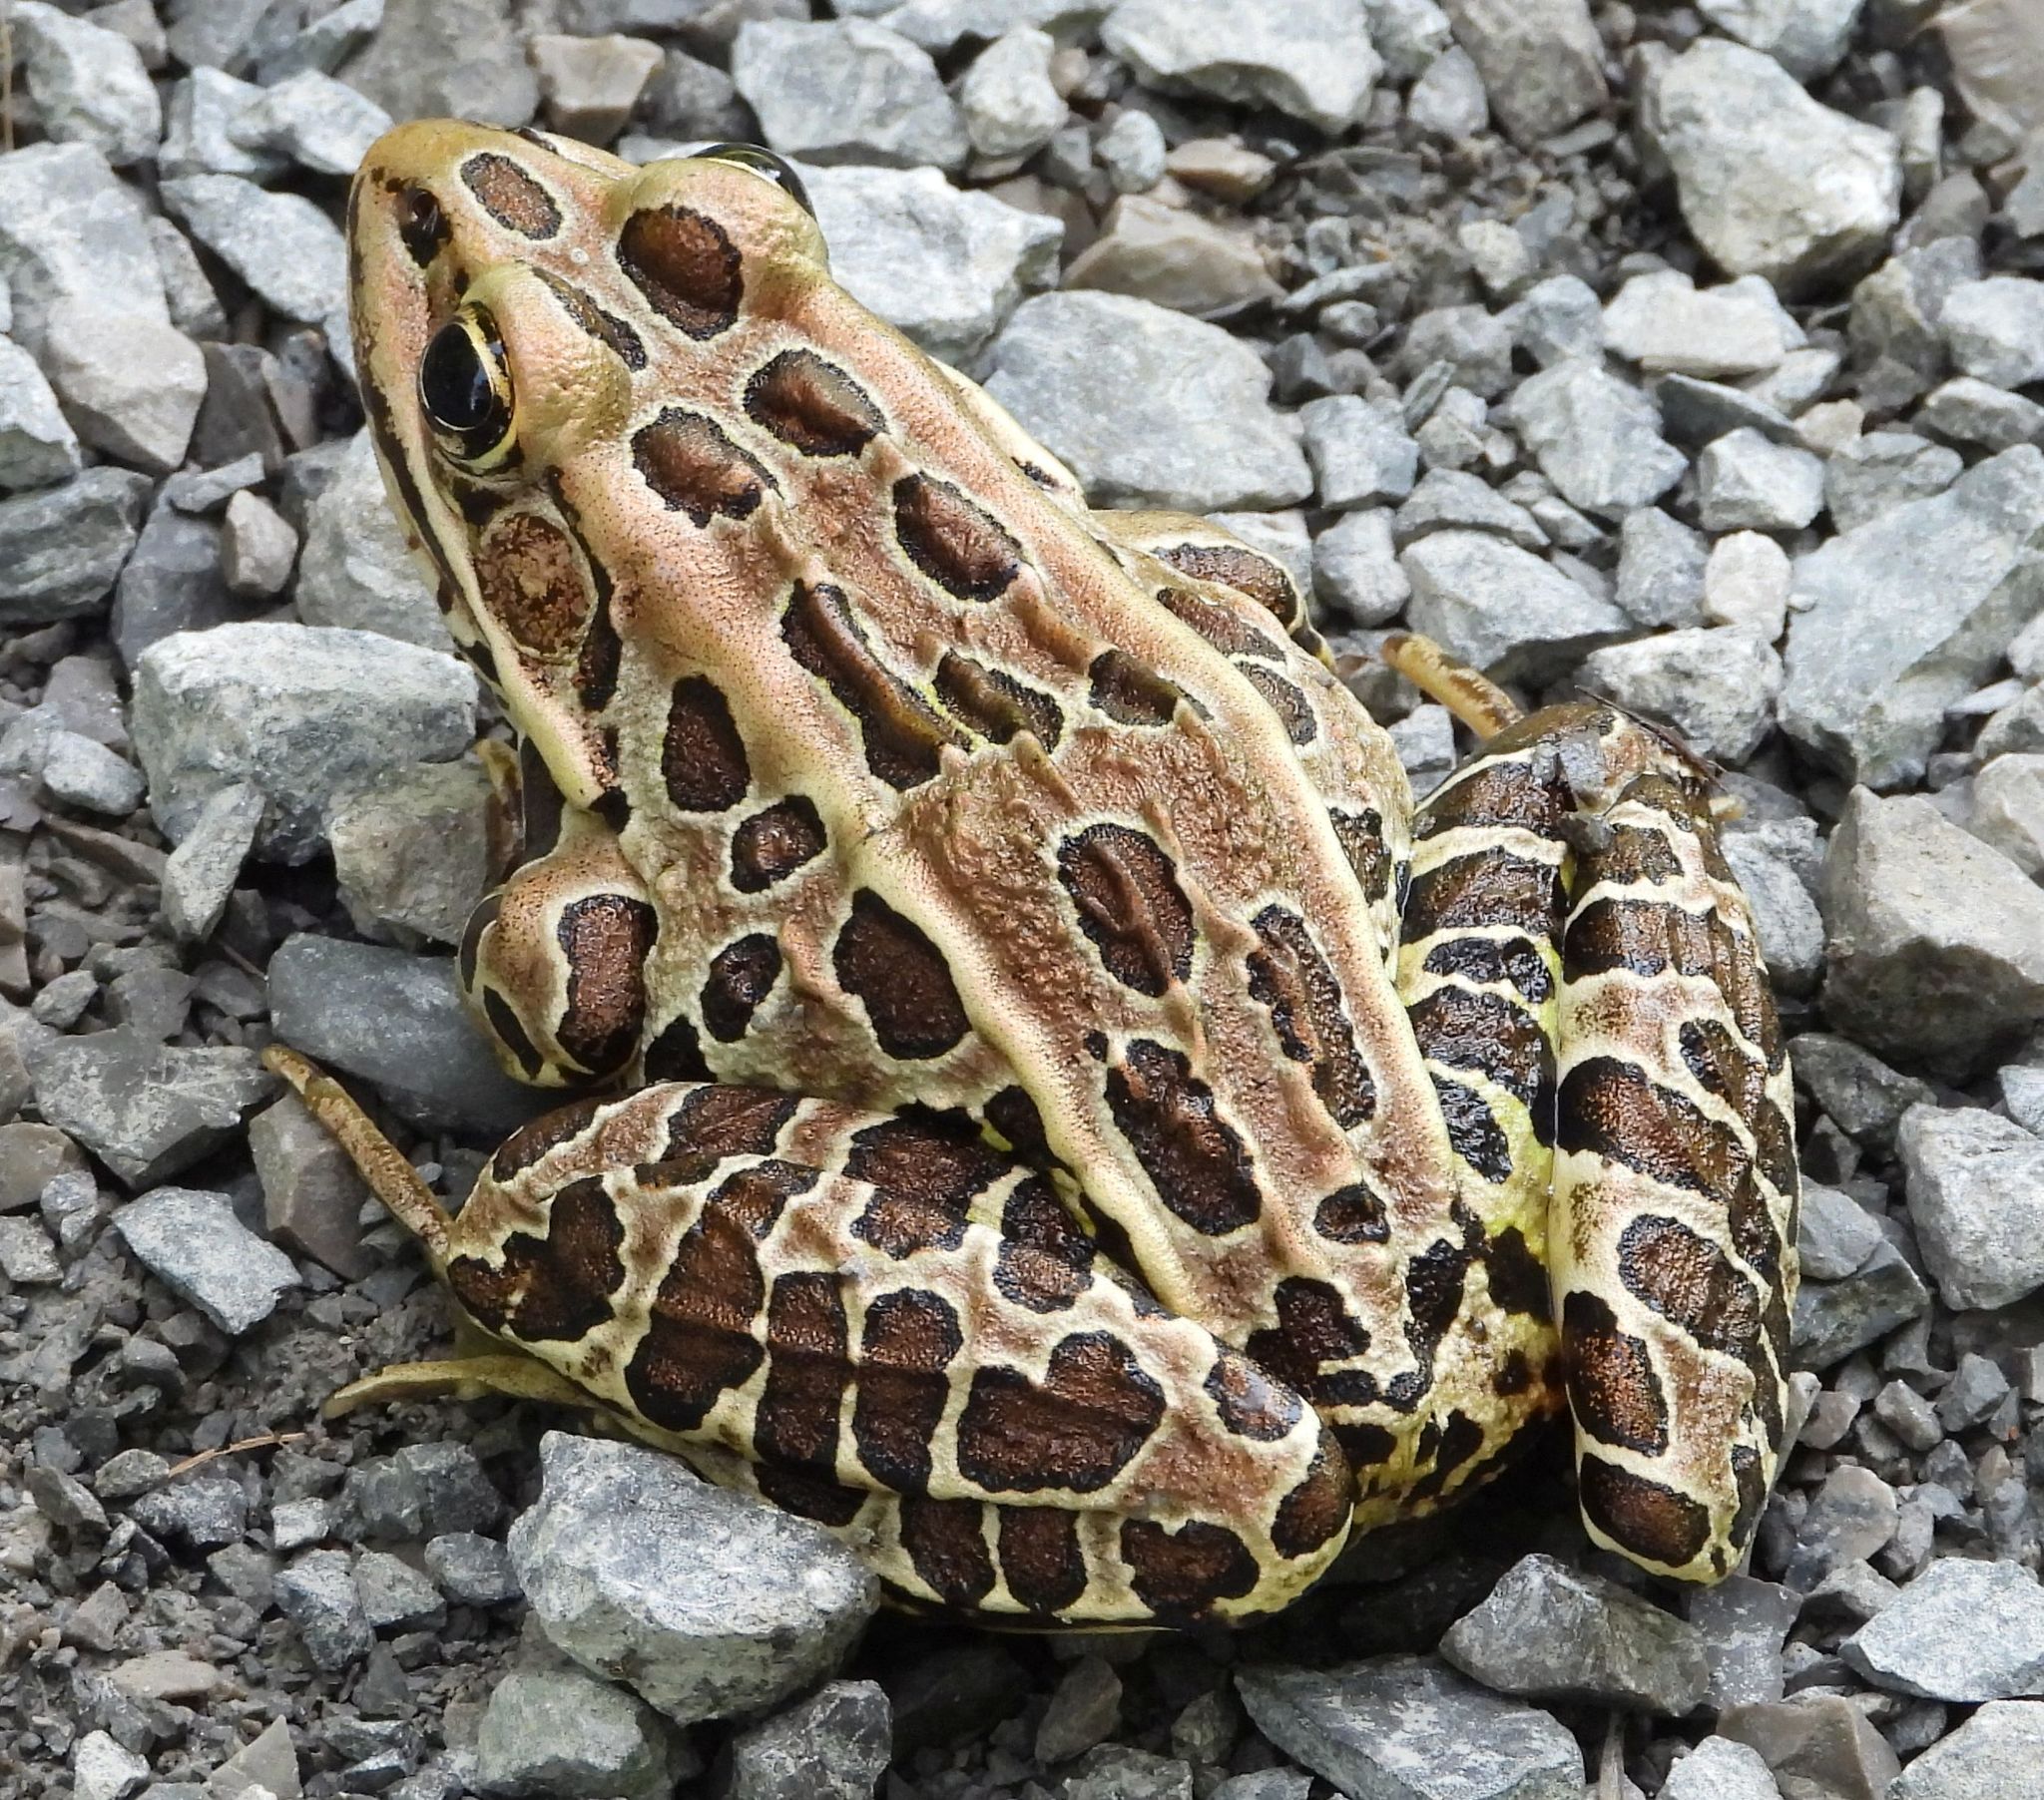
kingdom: Animalia
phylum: Chordata
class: Amphibia
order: Anura
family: Ranidae
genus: Lithobates
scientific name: Lithobates pipiens
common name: Northern leopard frog
